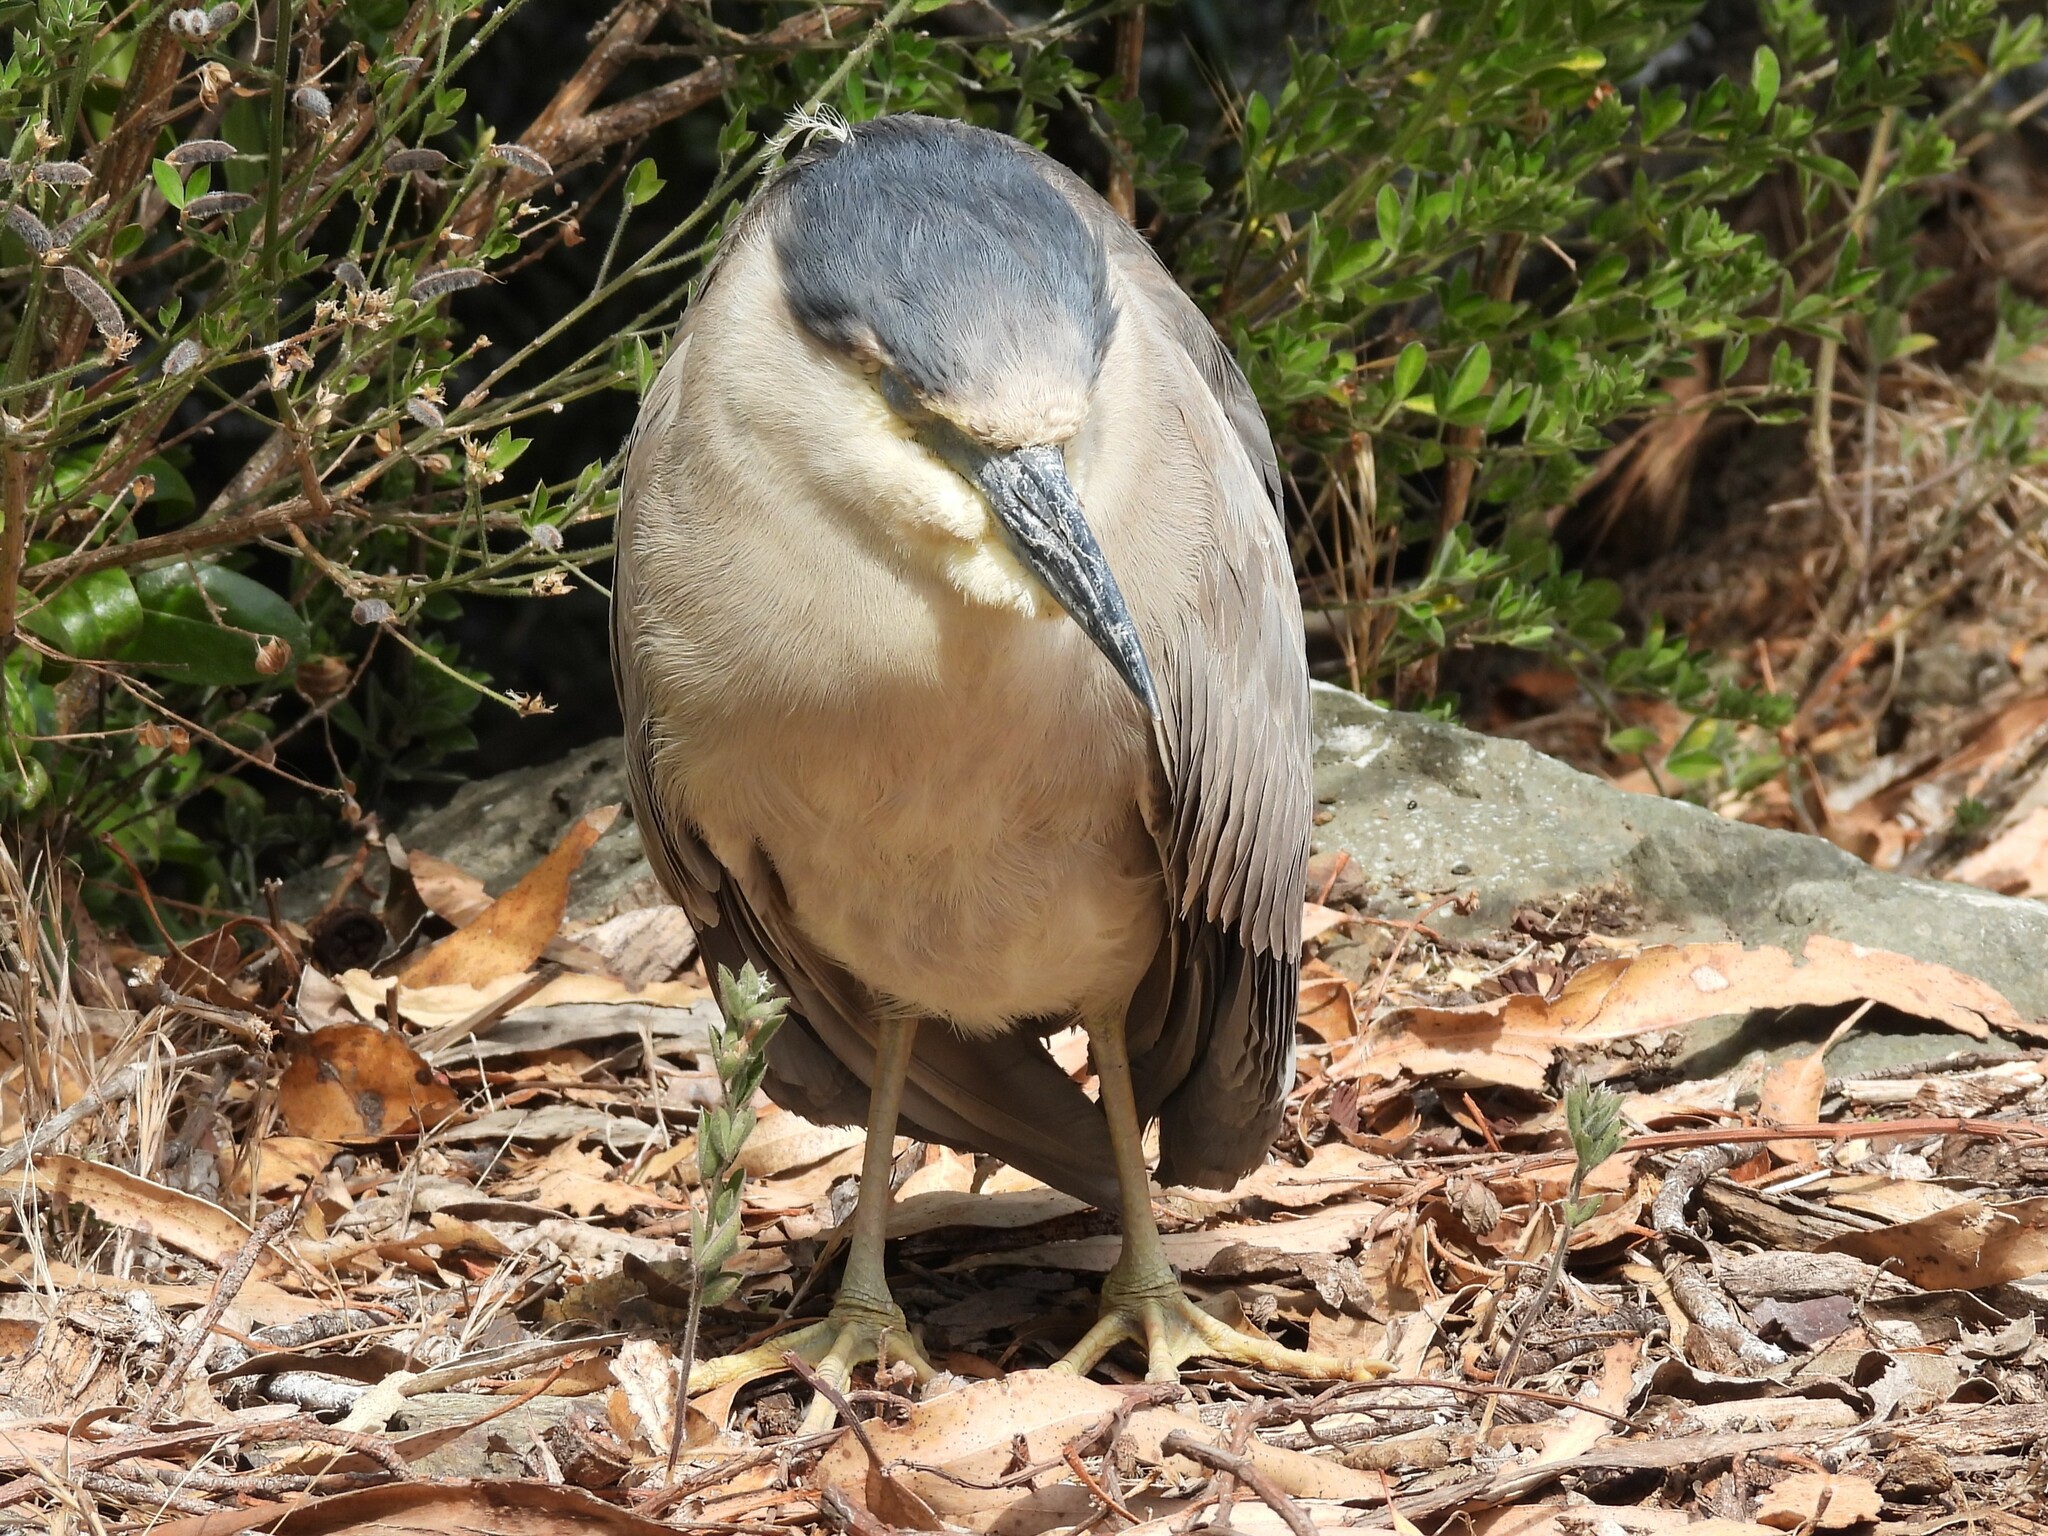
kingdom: Animalia
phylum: Chordata
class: Aves
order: Pelecaniformes
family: Ardeidae
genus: Nycticorax
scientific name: Nycticorax nycticorax
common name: Black-crowned night heron
